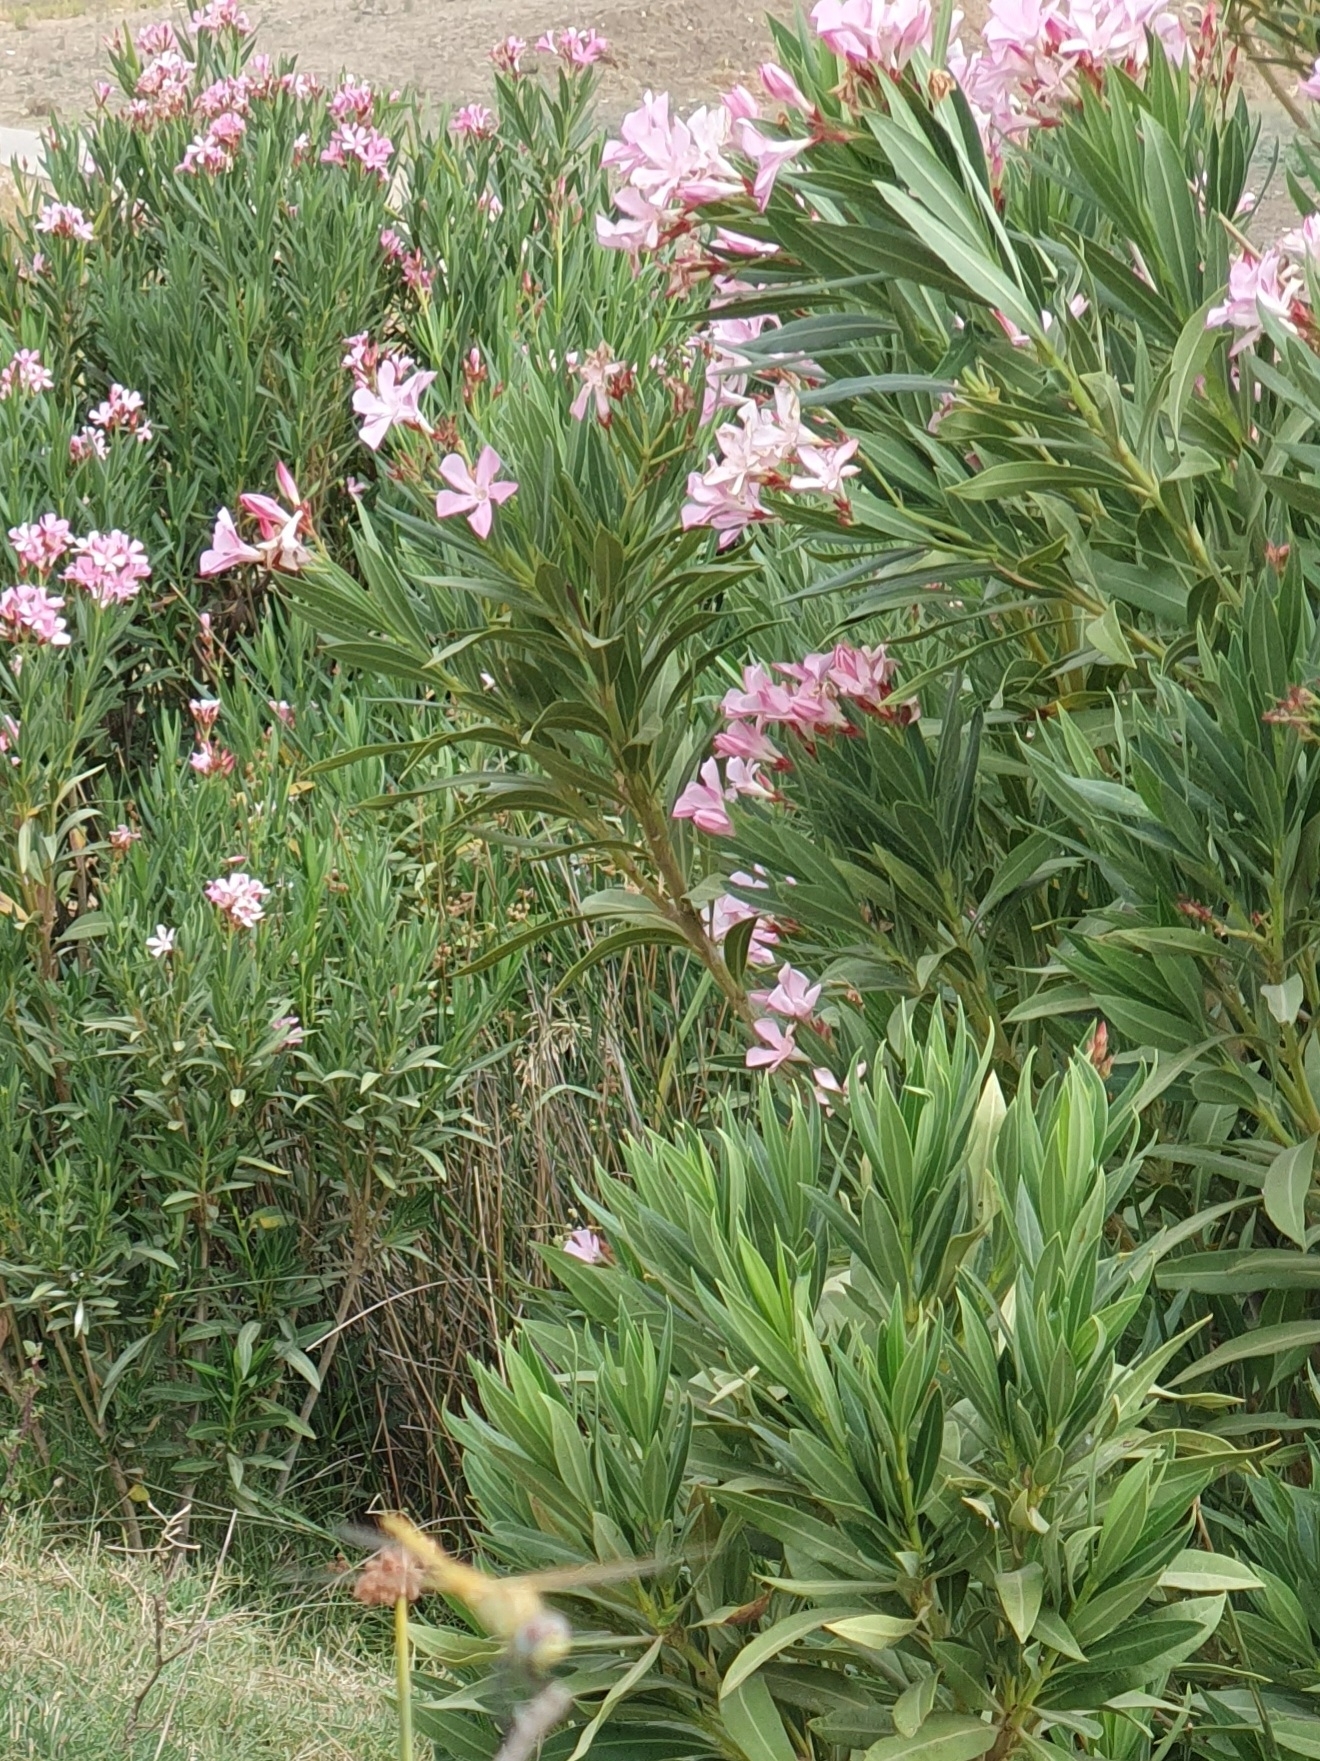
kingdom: Plantae
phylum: Tracheophyta
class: Magnoliopsida
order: Gentianales
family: Apocynaceae
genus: Nerium
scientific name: Nerium oleander
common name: Oleander
